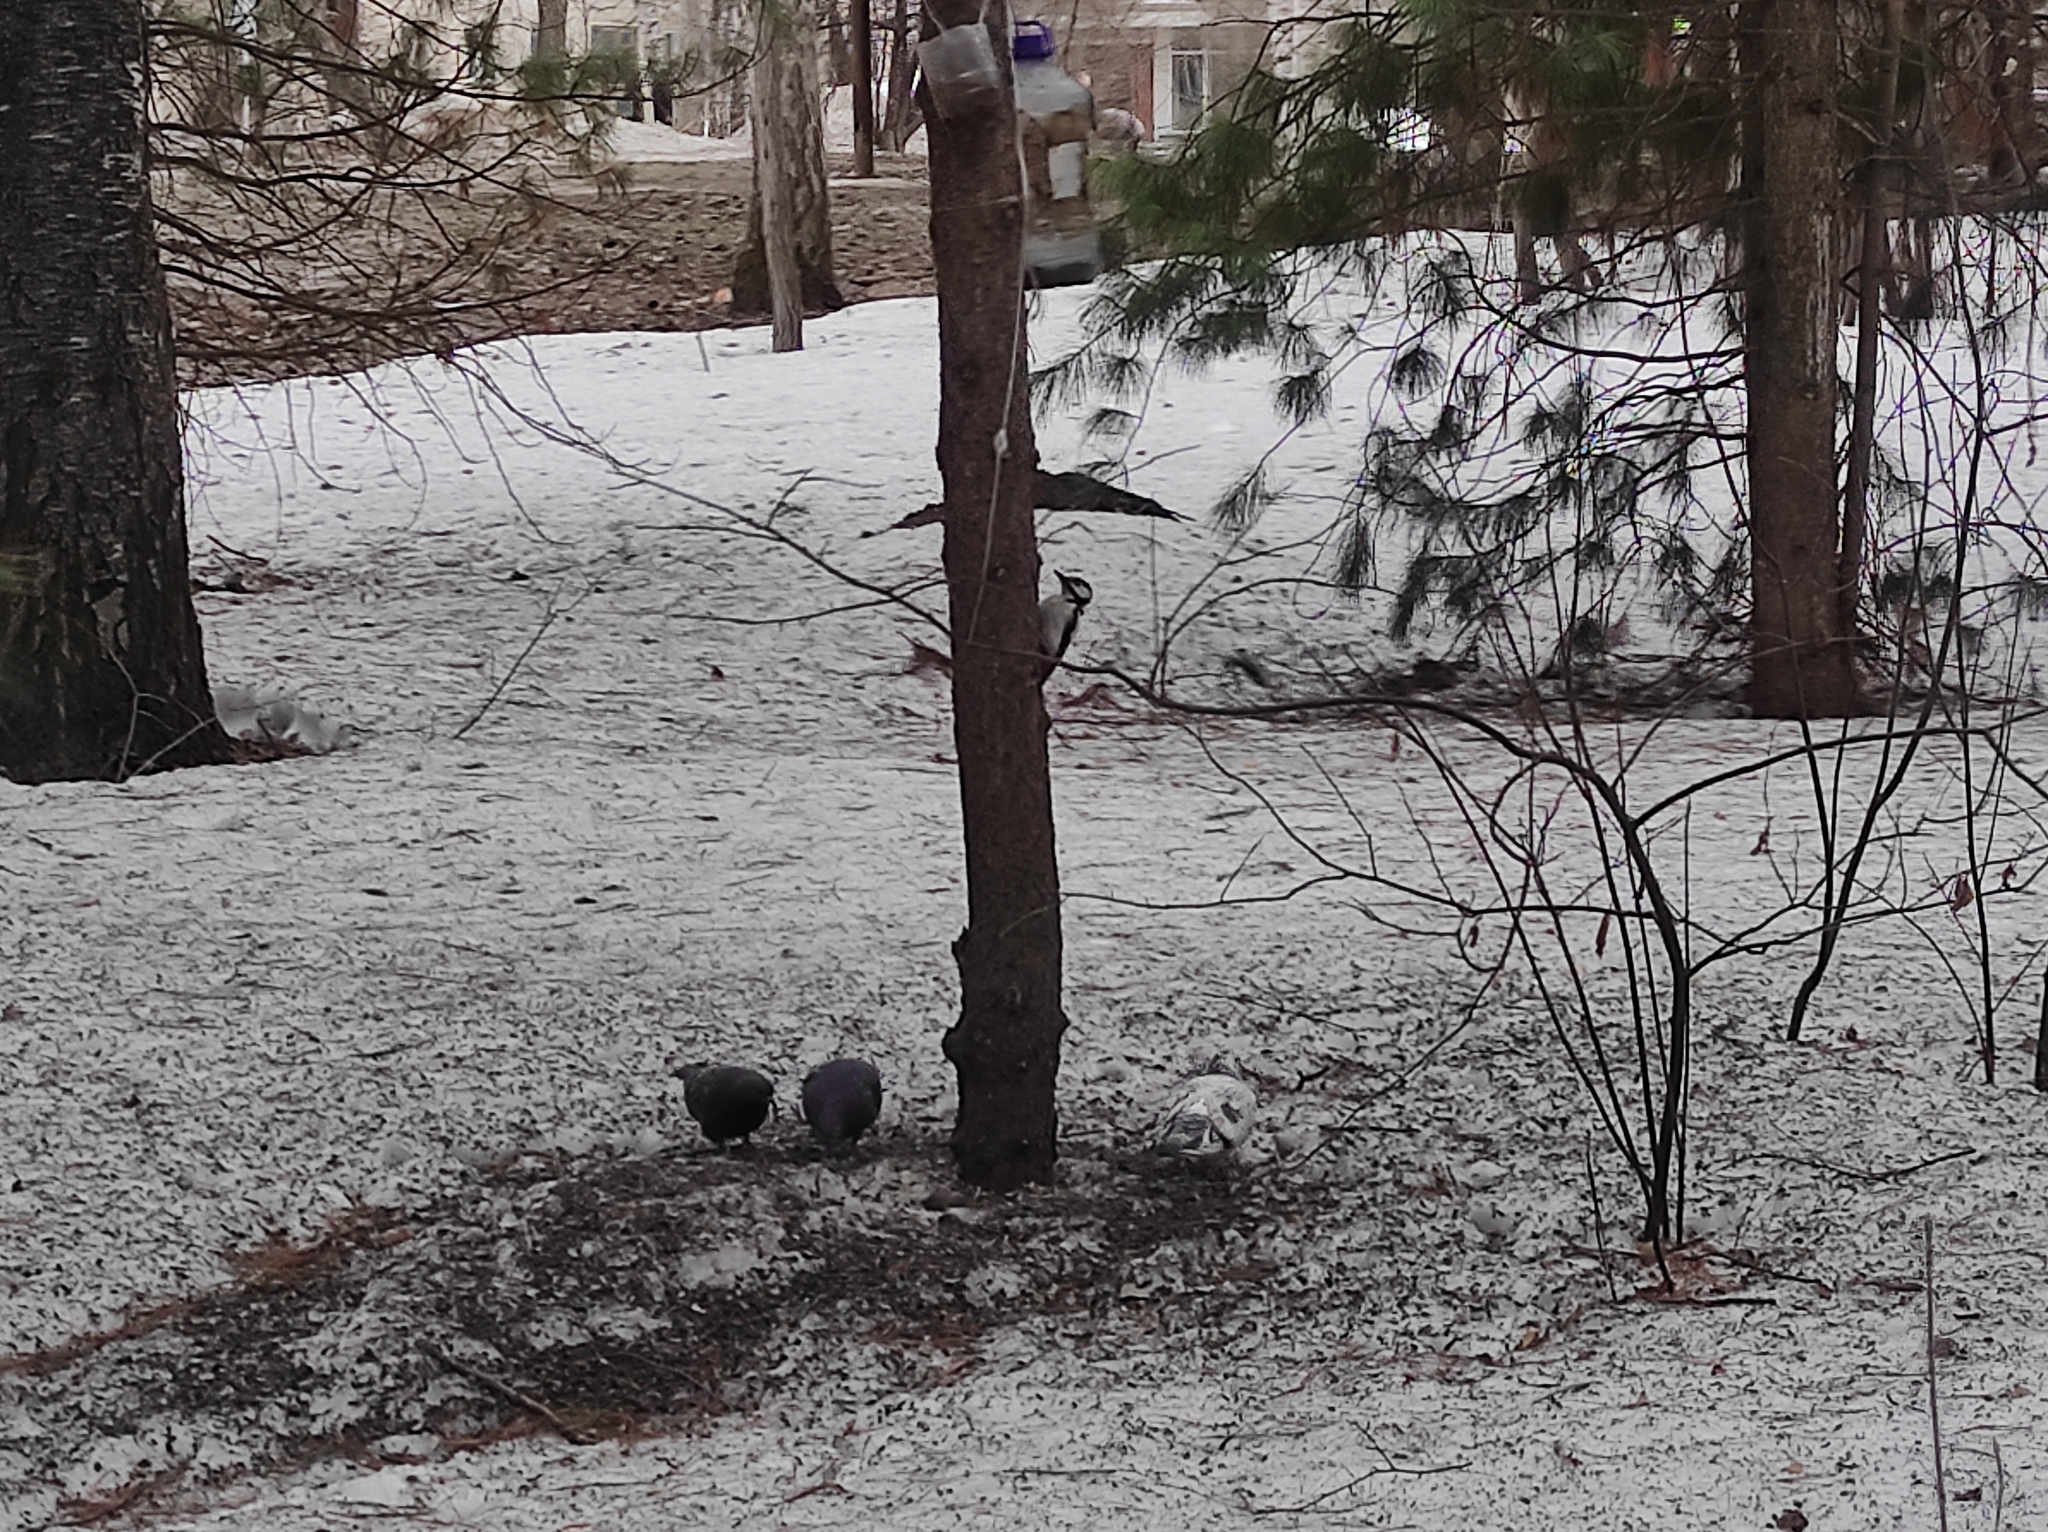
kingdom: Animalia
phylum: Chordata
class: Aves
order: Columbiformes
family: Columbidae
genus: Columba
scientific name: Columba livia
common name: Rock pigeon
